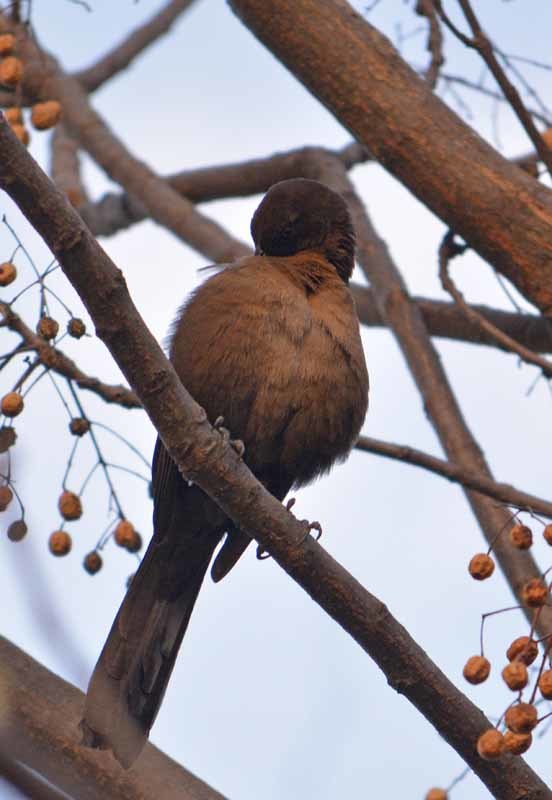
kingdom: Animalia
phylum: Chordata
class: Aves
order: Passeriformes
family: Icteridae
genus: Quiscalus
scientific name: Quiscalus mexicanus
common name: Great-tailed grackle
